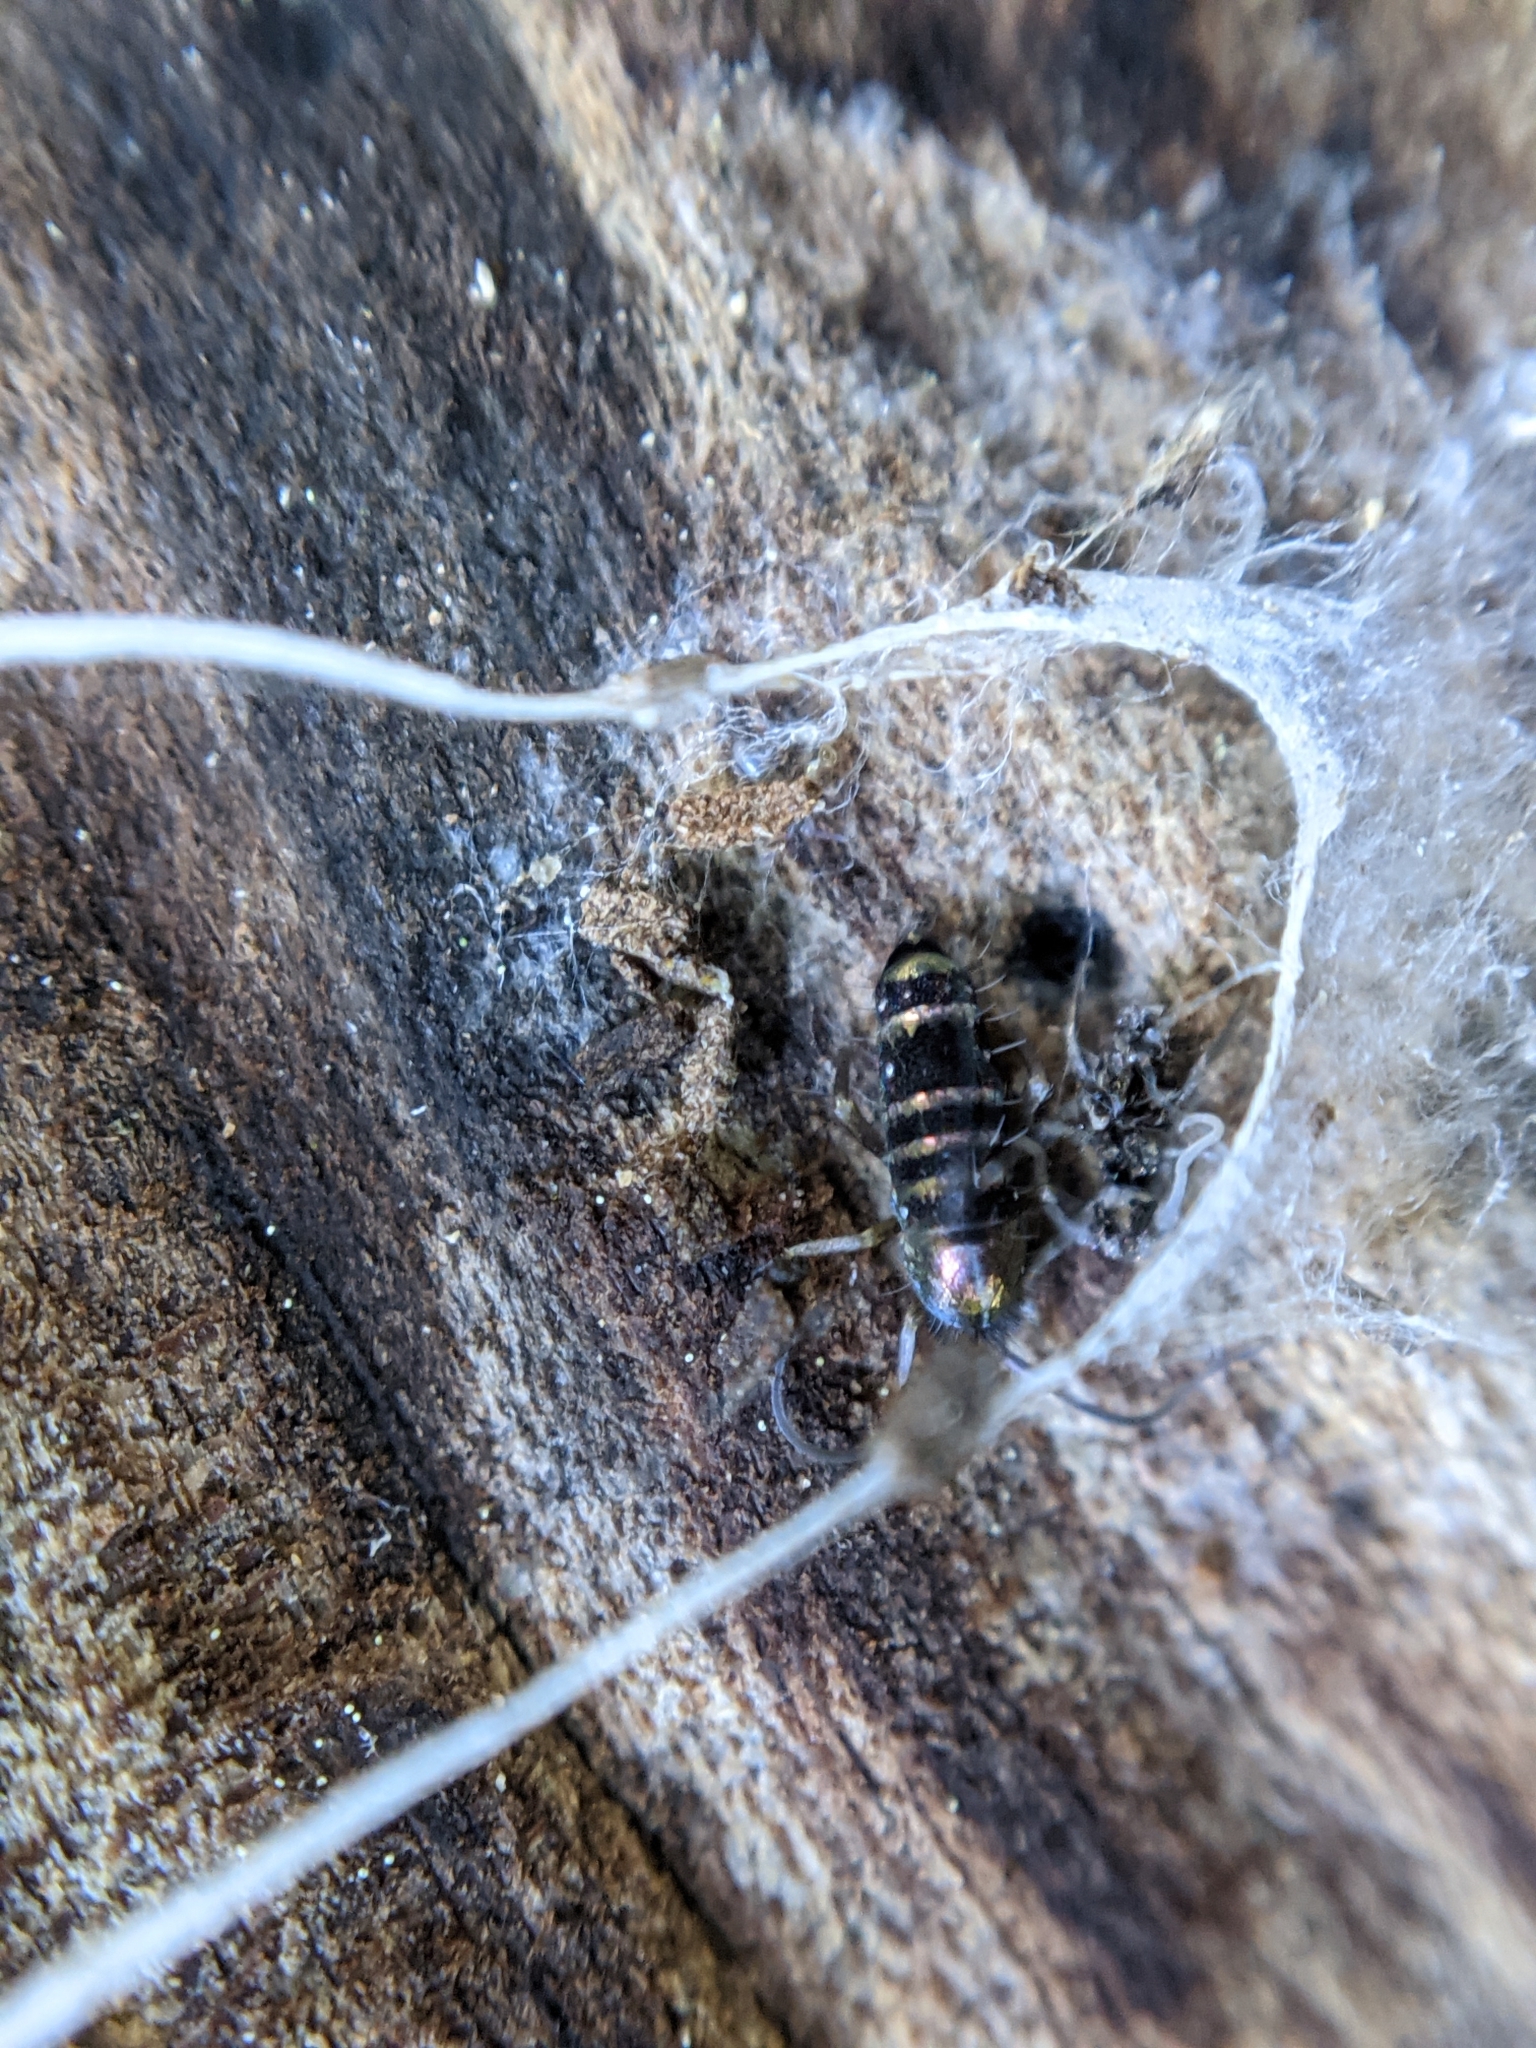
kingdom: Animalia
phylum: Arthropoda
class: Collembola
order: Entomobryomorpha
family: Tomoceridae
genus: Tomocerus
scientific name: Tomocerus vulgaris
